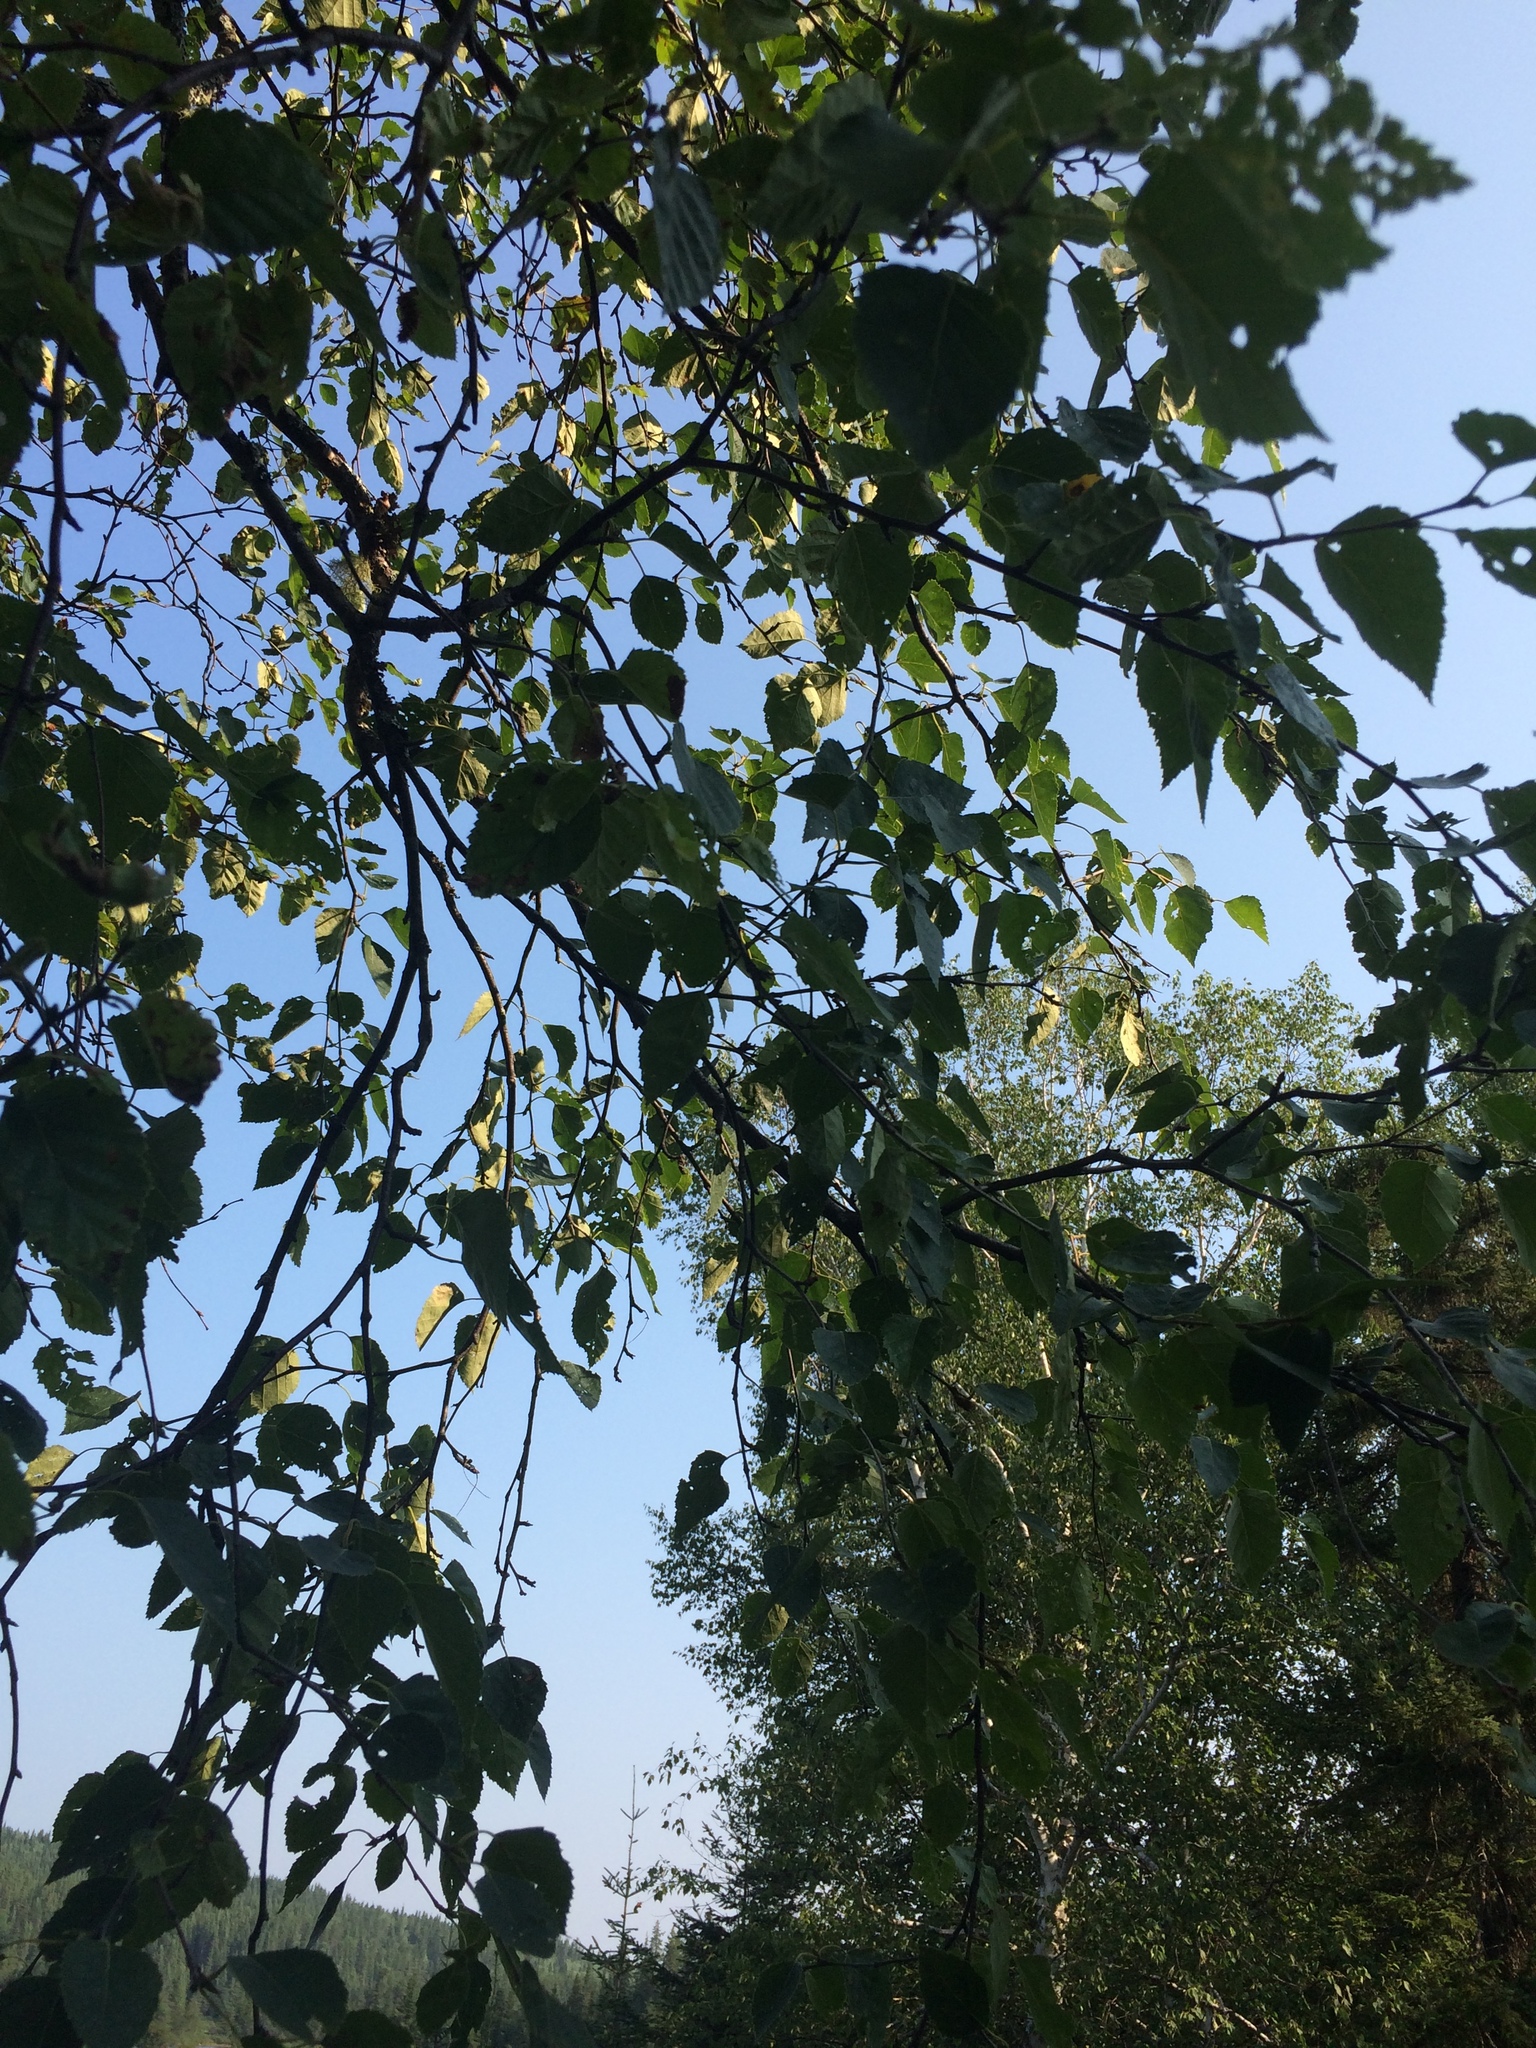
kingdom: Plantae
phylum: Tracheophyta
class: Magnoliopsida
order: Fagales
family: Betulaceae
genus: Betula
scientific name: Betula papyrifera
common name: Paper birch
